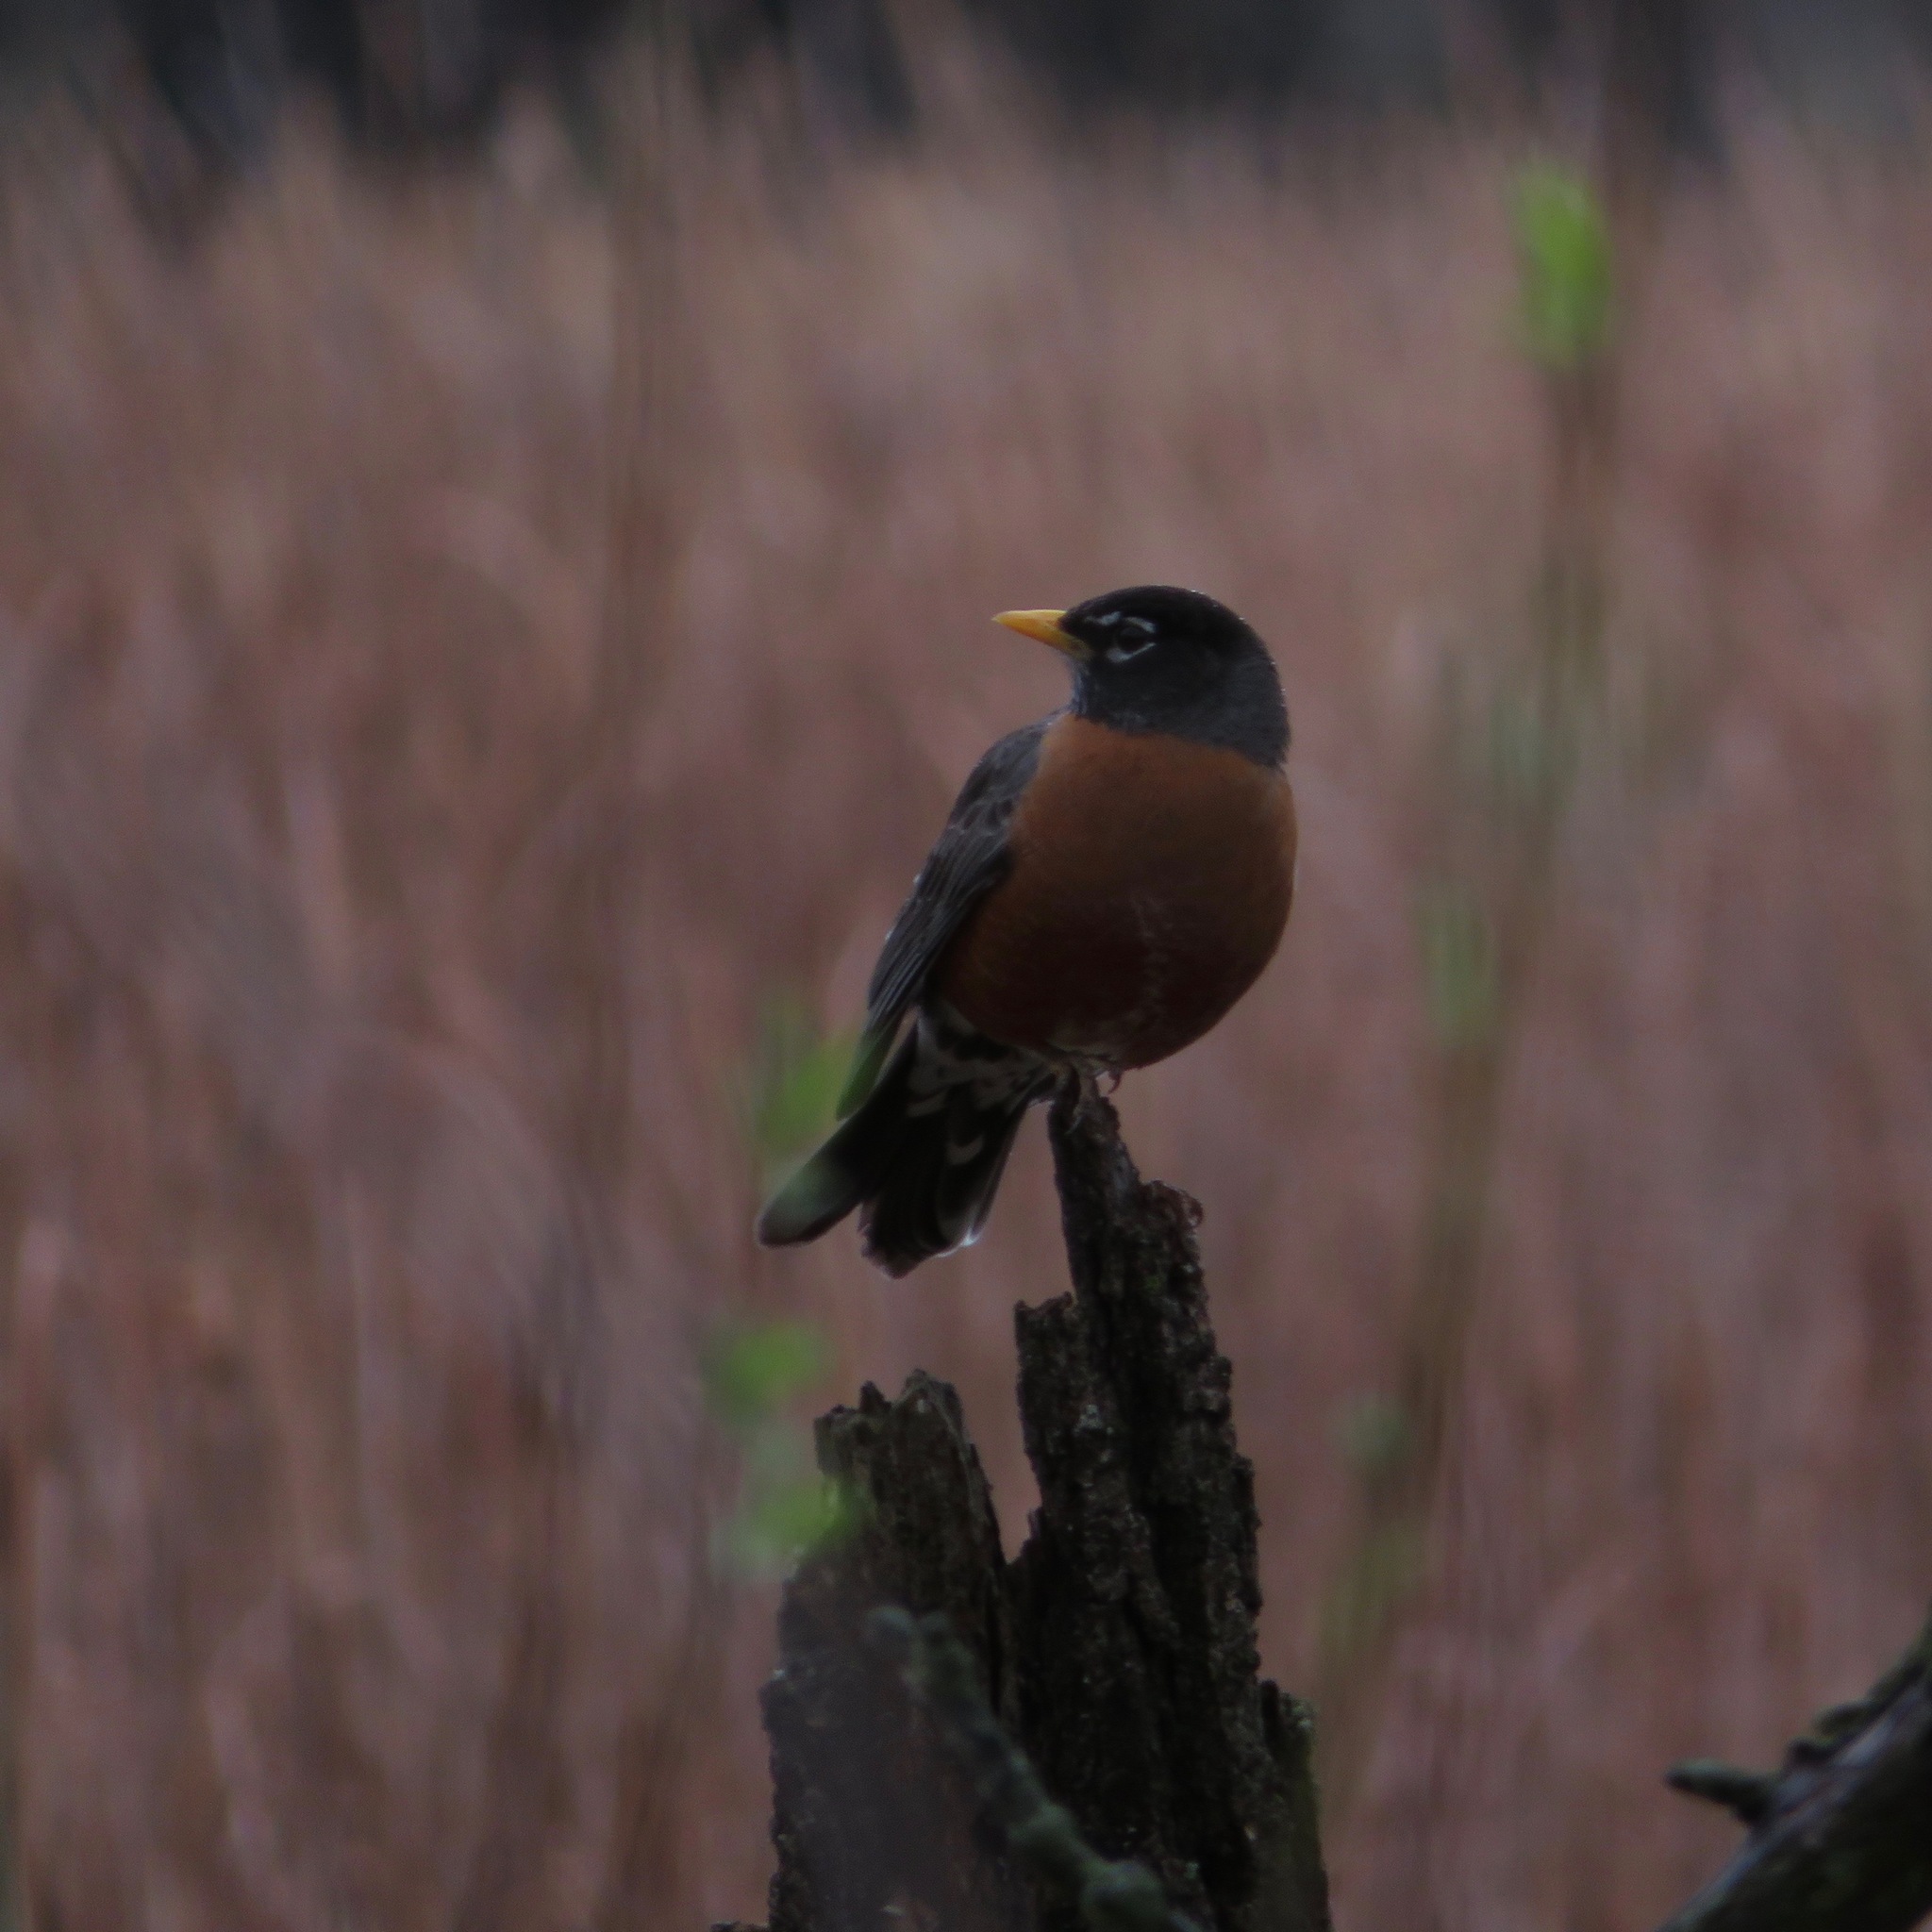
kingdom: Animalia
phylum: Chordata
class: Aves
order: Passeriformes
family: Turdidae
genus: Turdus
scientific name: Turdus migratorius
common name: American robin
